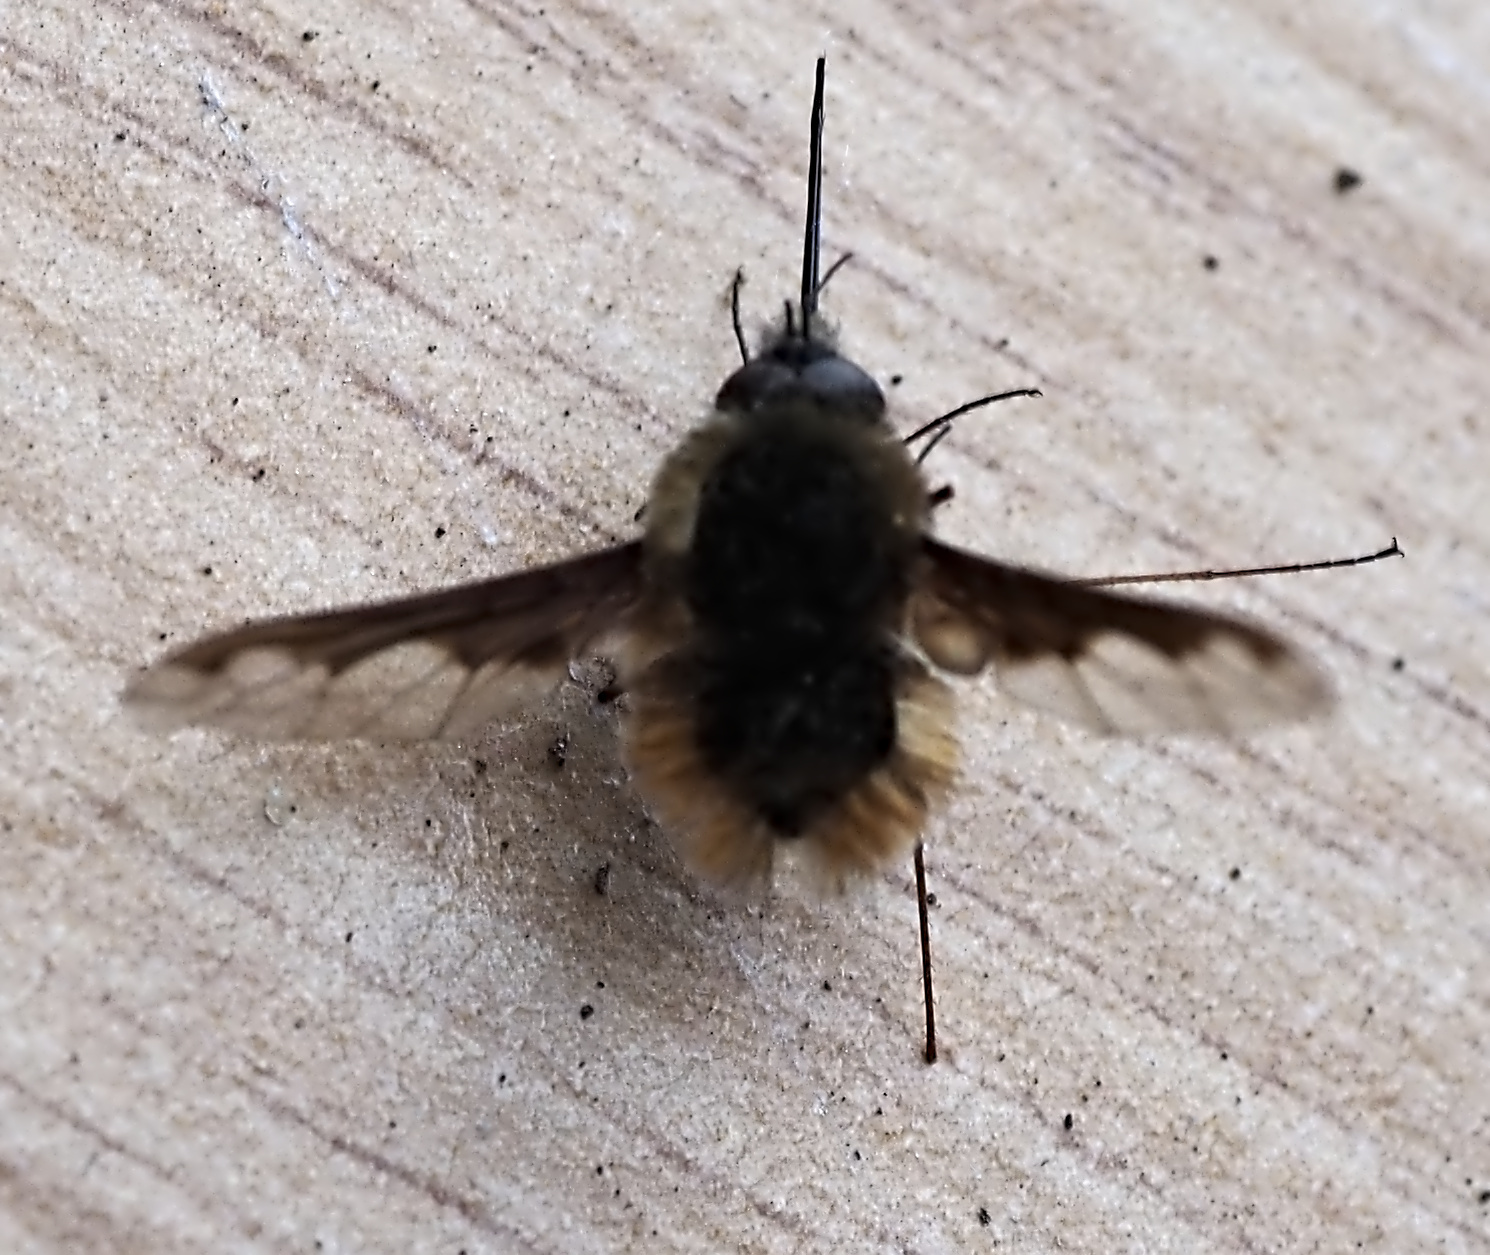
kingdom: Animalia
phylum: Arthropoda
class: Insecta
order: Diptera
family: Bombyliidae
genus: Bombylius
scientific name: Bombylius major
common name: Bee fly
